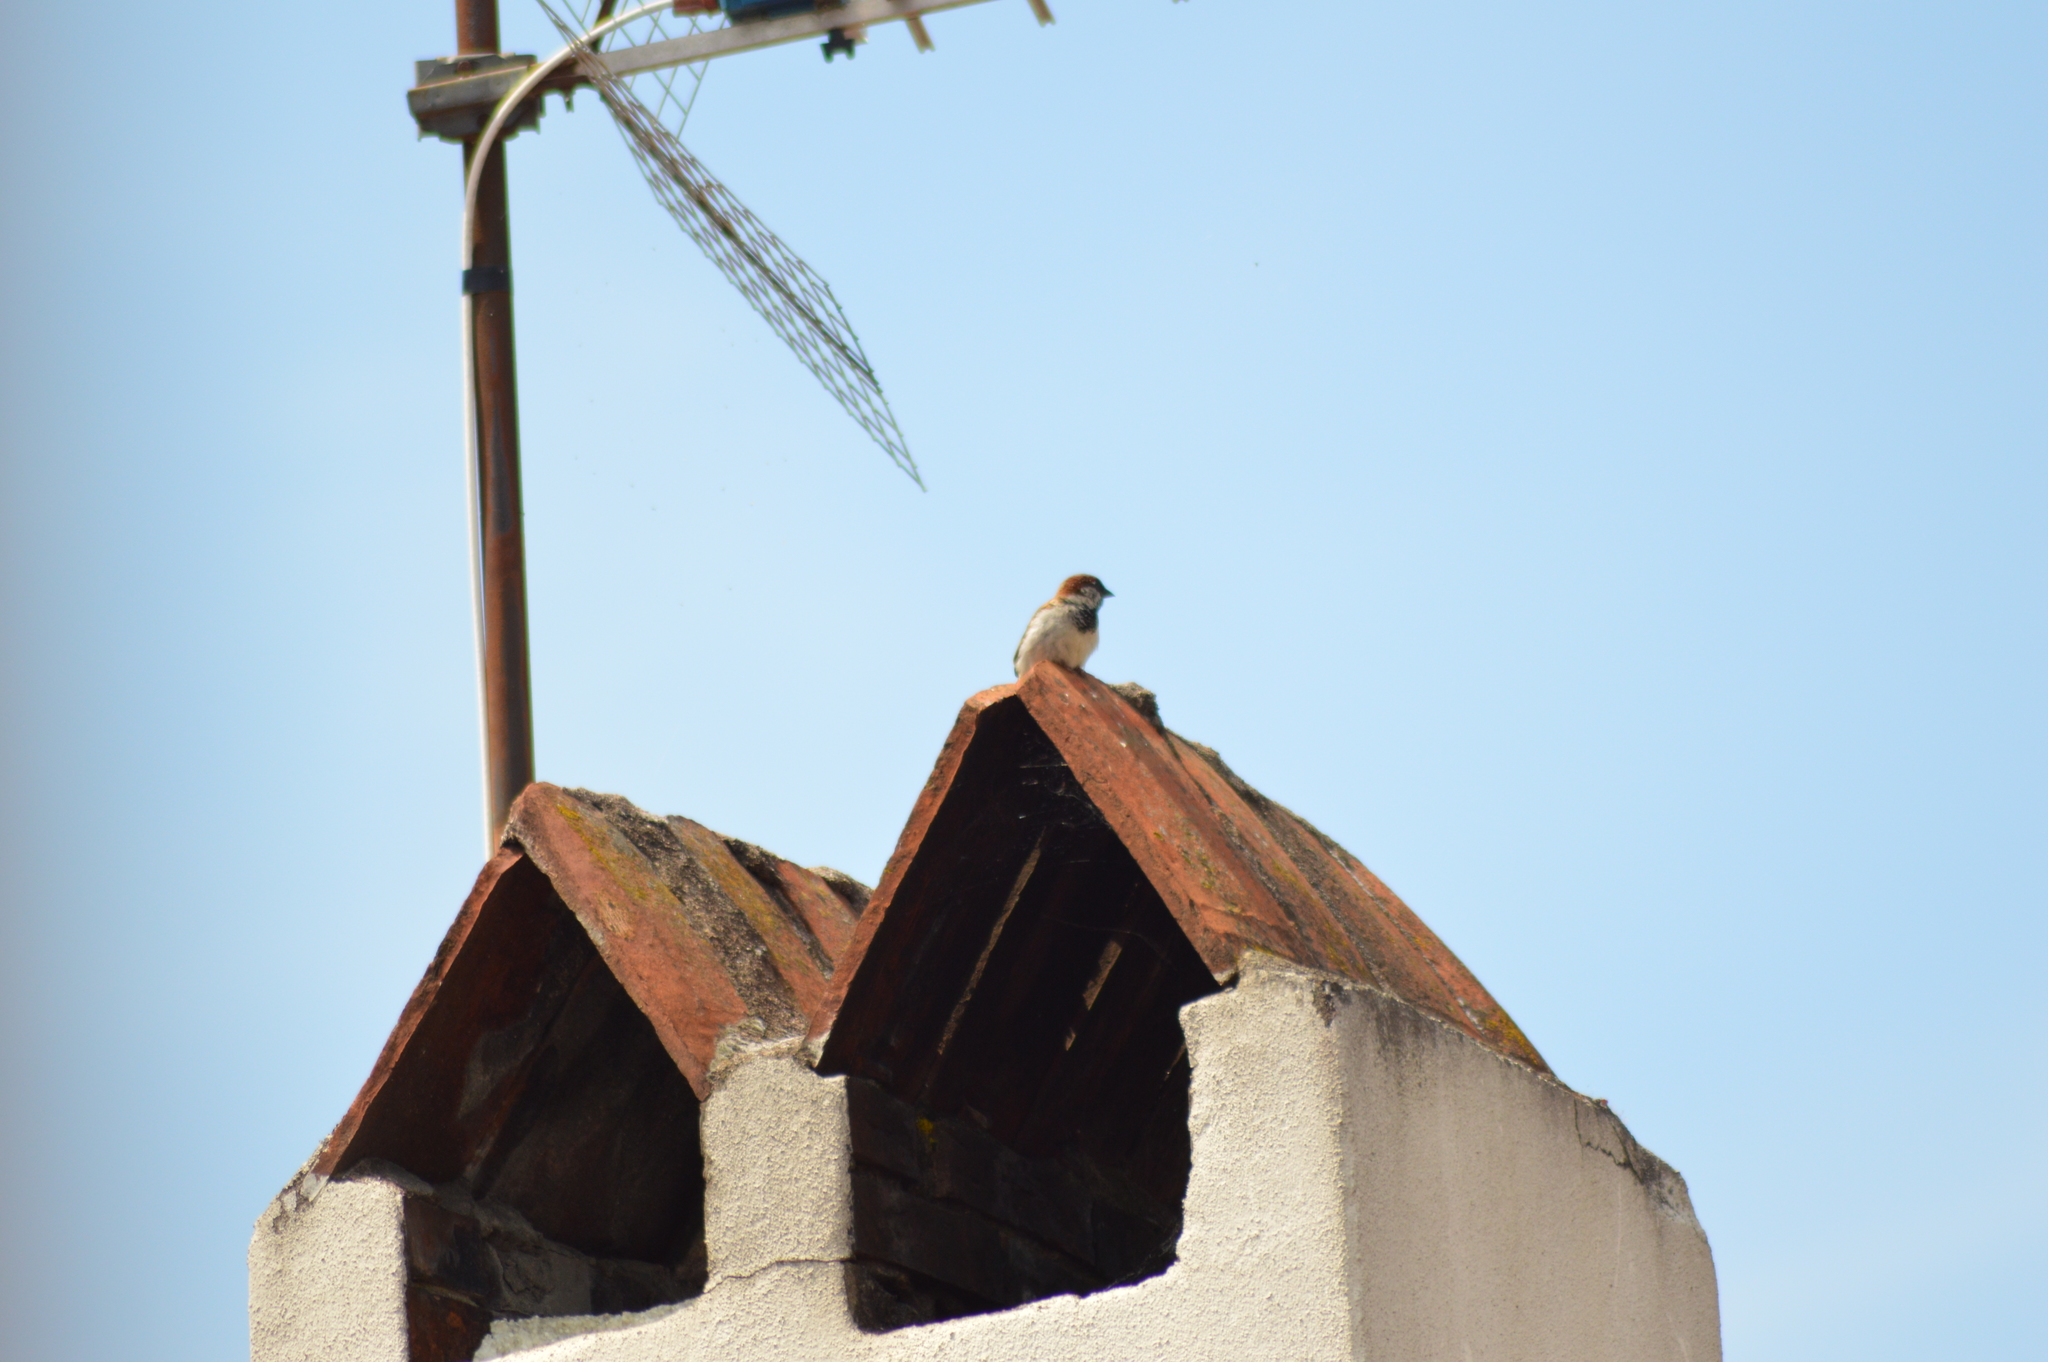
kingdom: Animalia
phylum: Chordata
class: Aves
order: Passeriformes
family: Passeridae
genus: Passer
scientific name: Passer domesticus
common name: House sparrow
